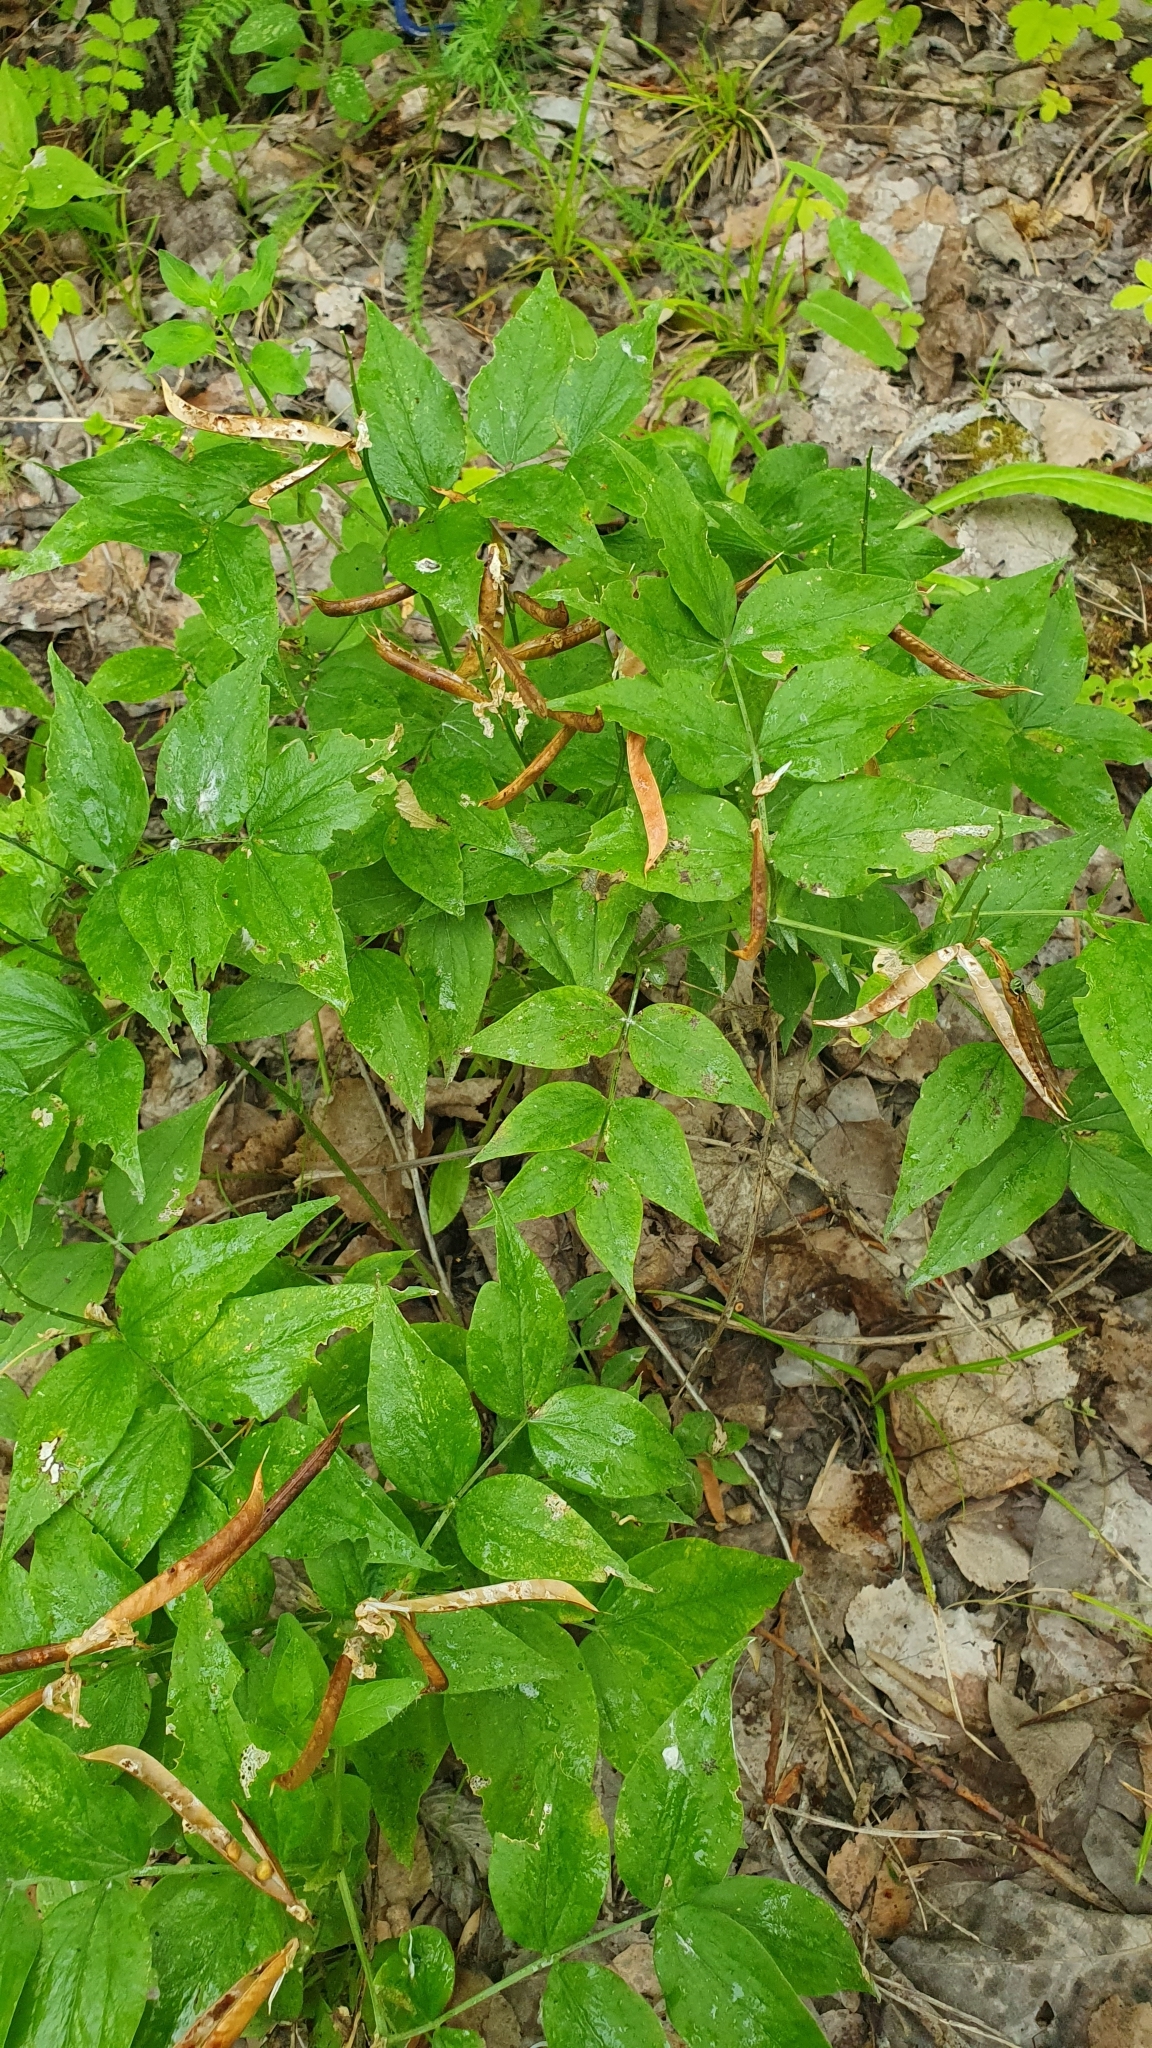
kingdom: Plantae
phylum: Tracheophyta
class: Magnoliopsida
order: Fabales
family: Fabaceae
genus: Lathyrus
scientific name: Lathyrus vernus
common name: Spring pea
